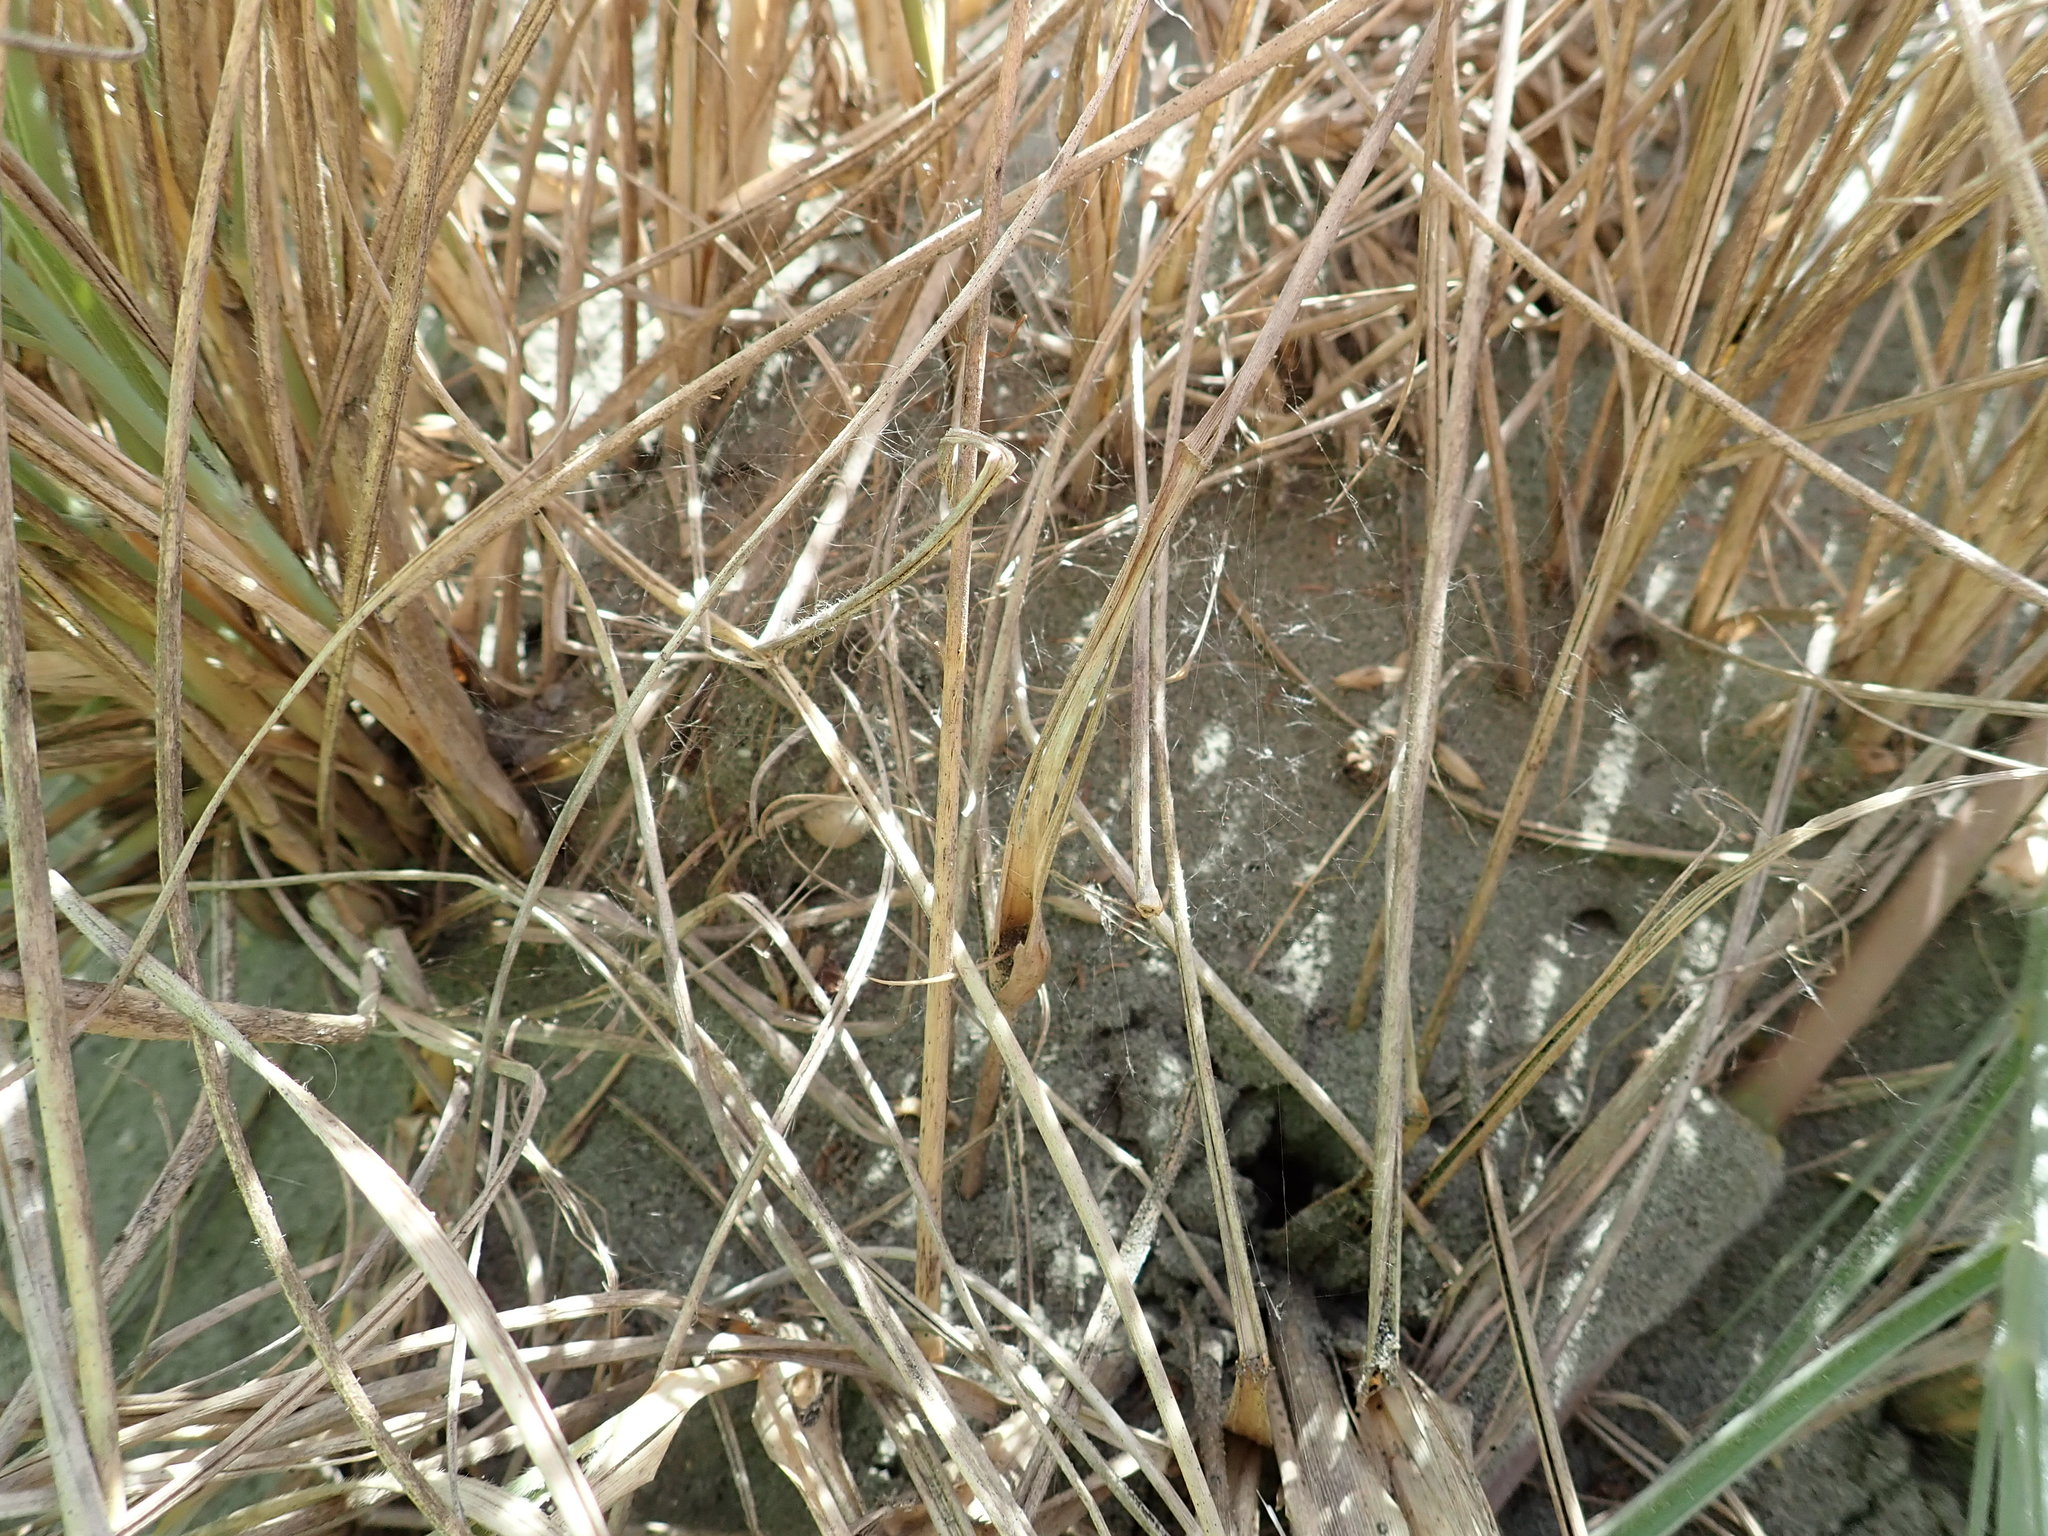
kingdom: Animalia
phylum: Arthropoda
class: Arachnida
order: Araneae
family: Theridiidae
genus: Latrodectus
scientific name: Latrodectus katipo
